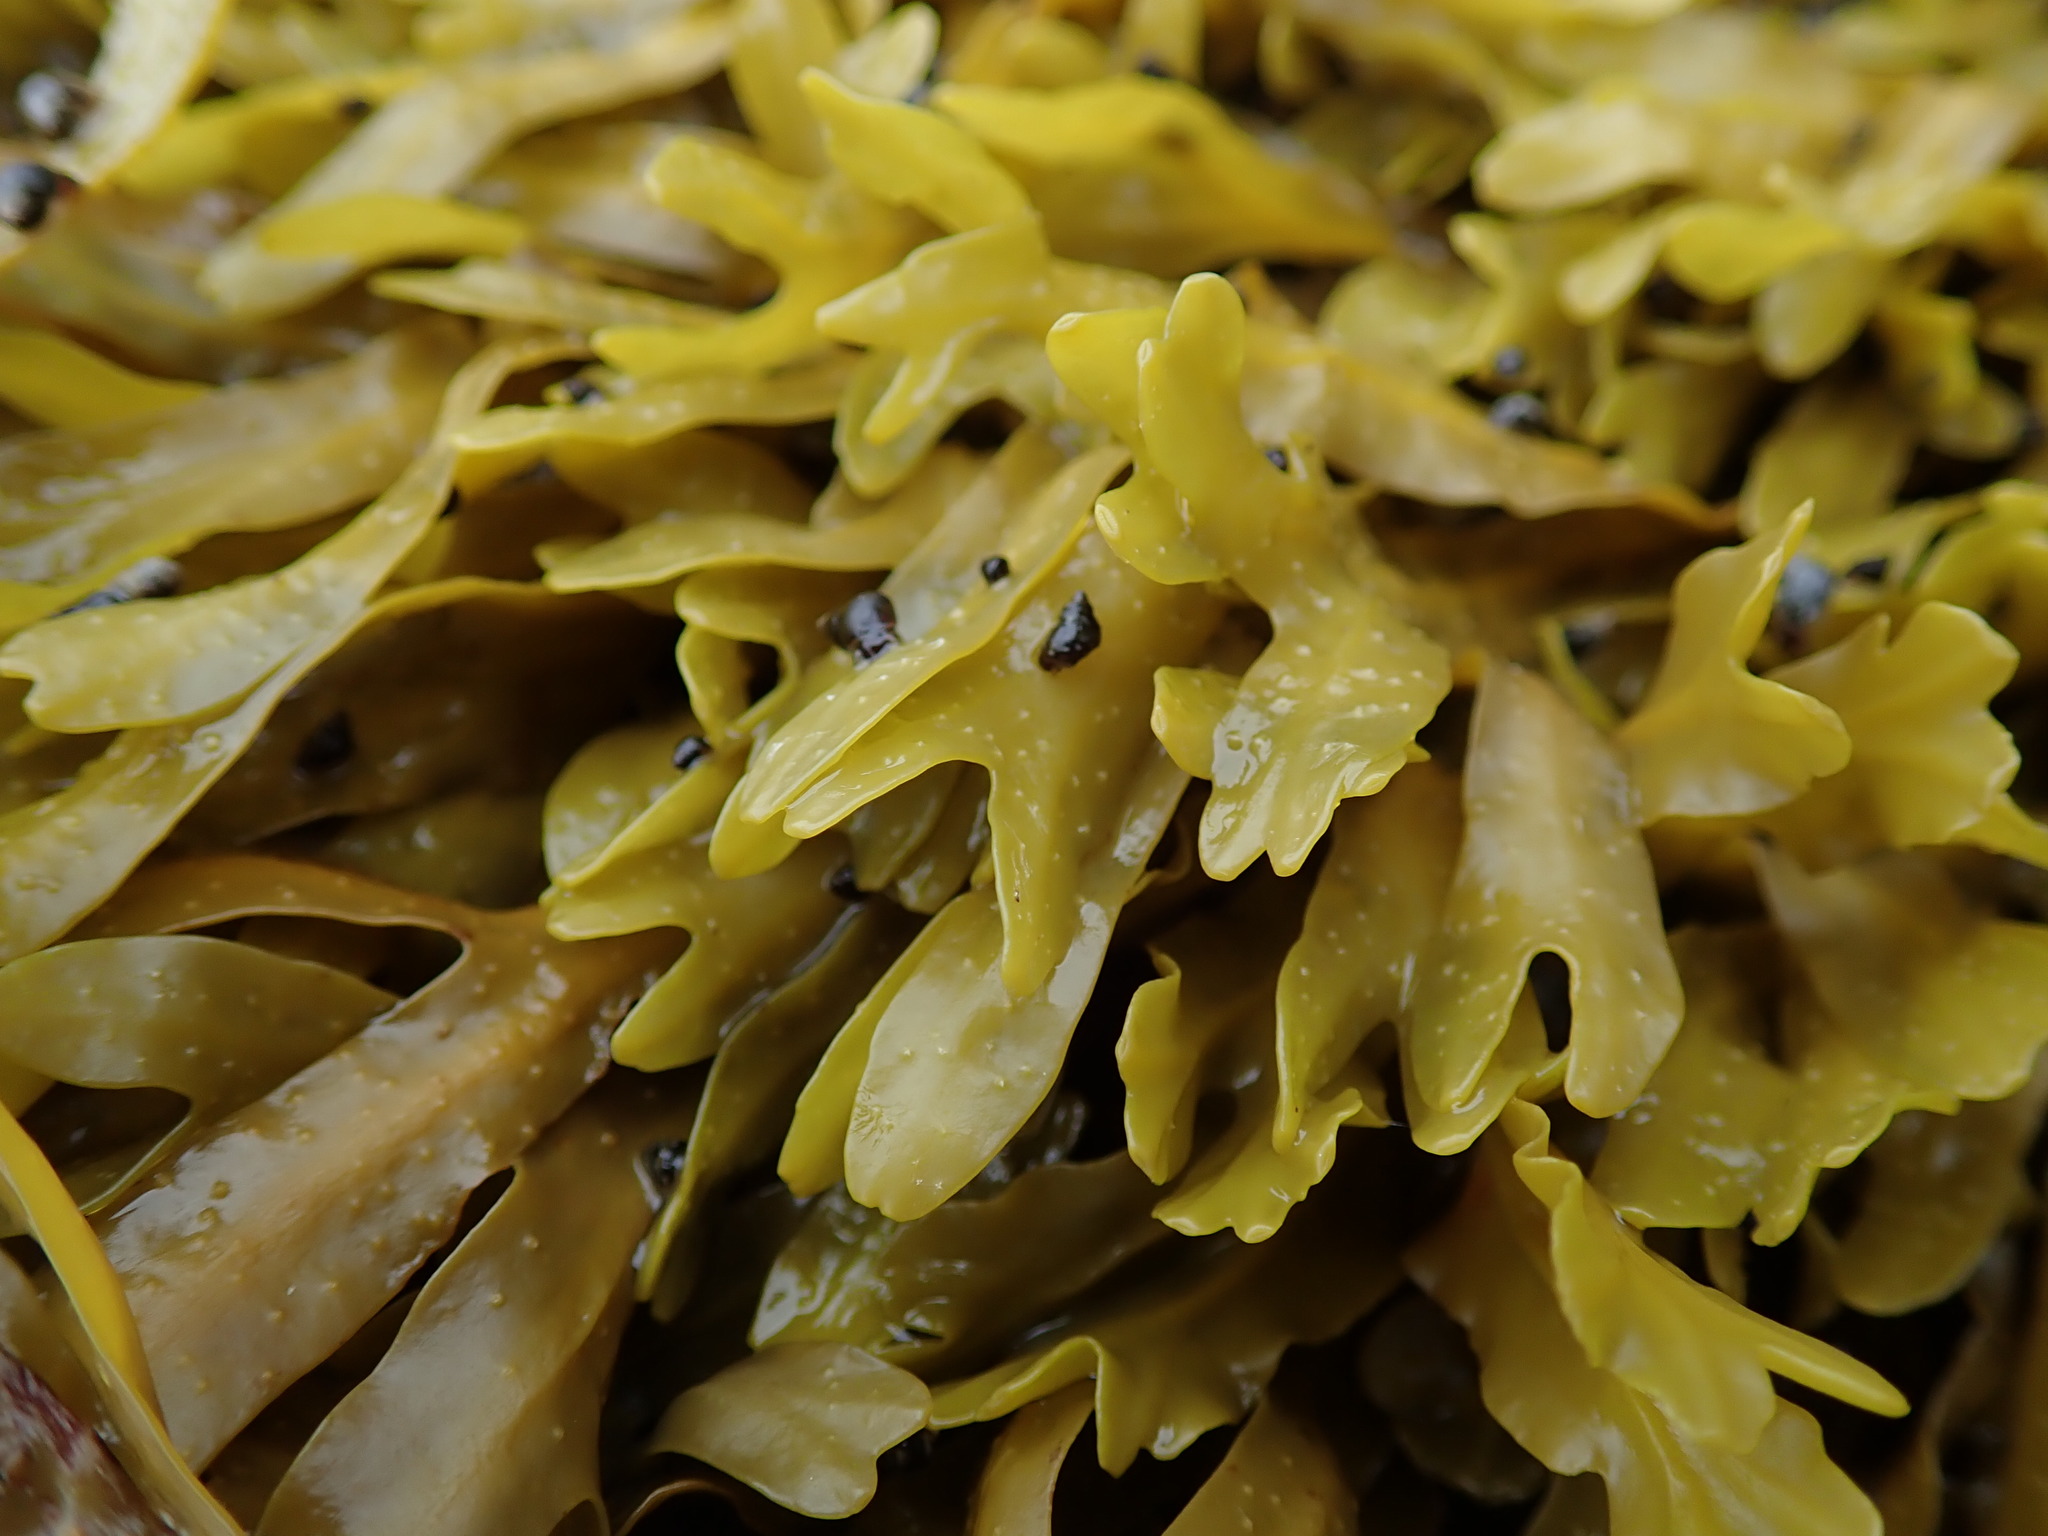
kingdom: Animalia
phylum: Mollusca
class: Gastropoda
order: Littorinimorpha
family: Littorinidae
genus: Littorina
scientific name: Littorina scutulata
